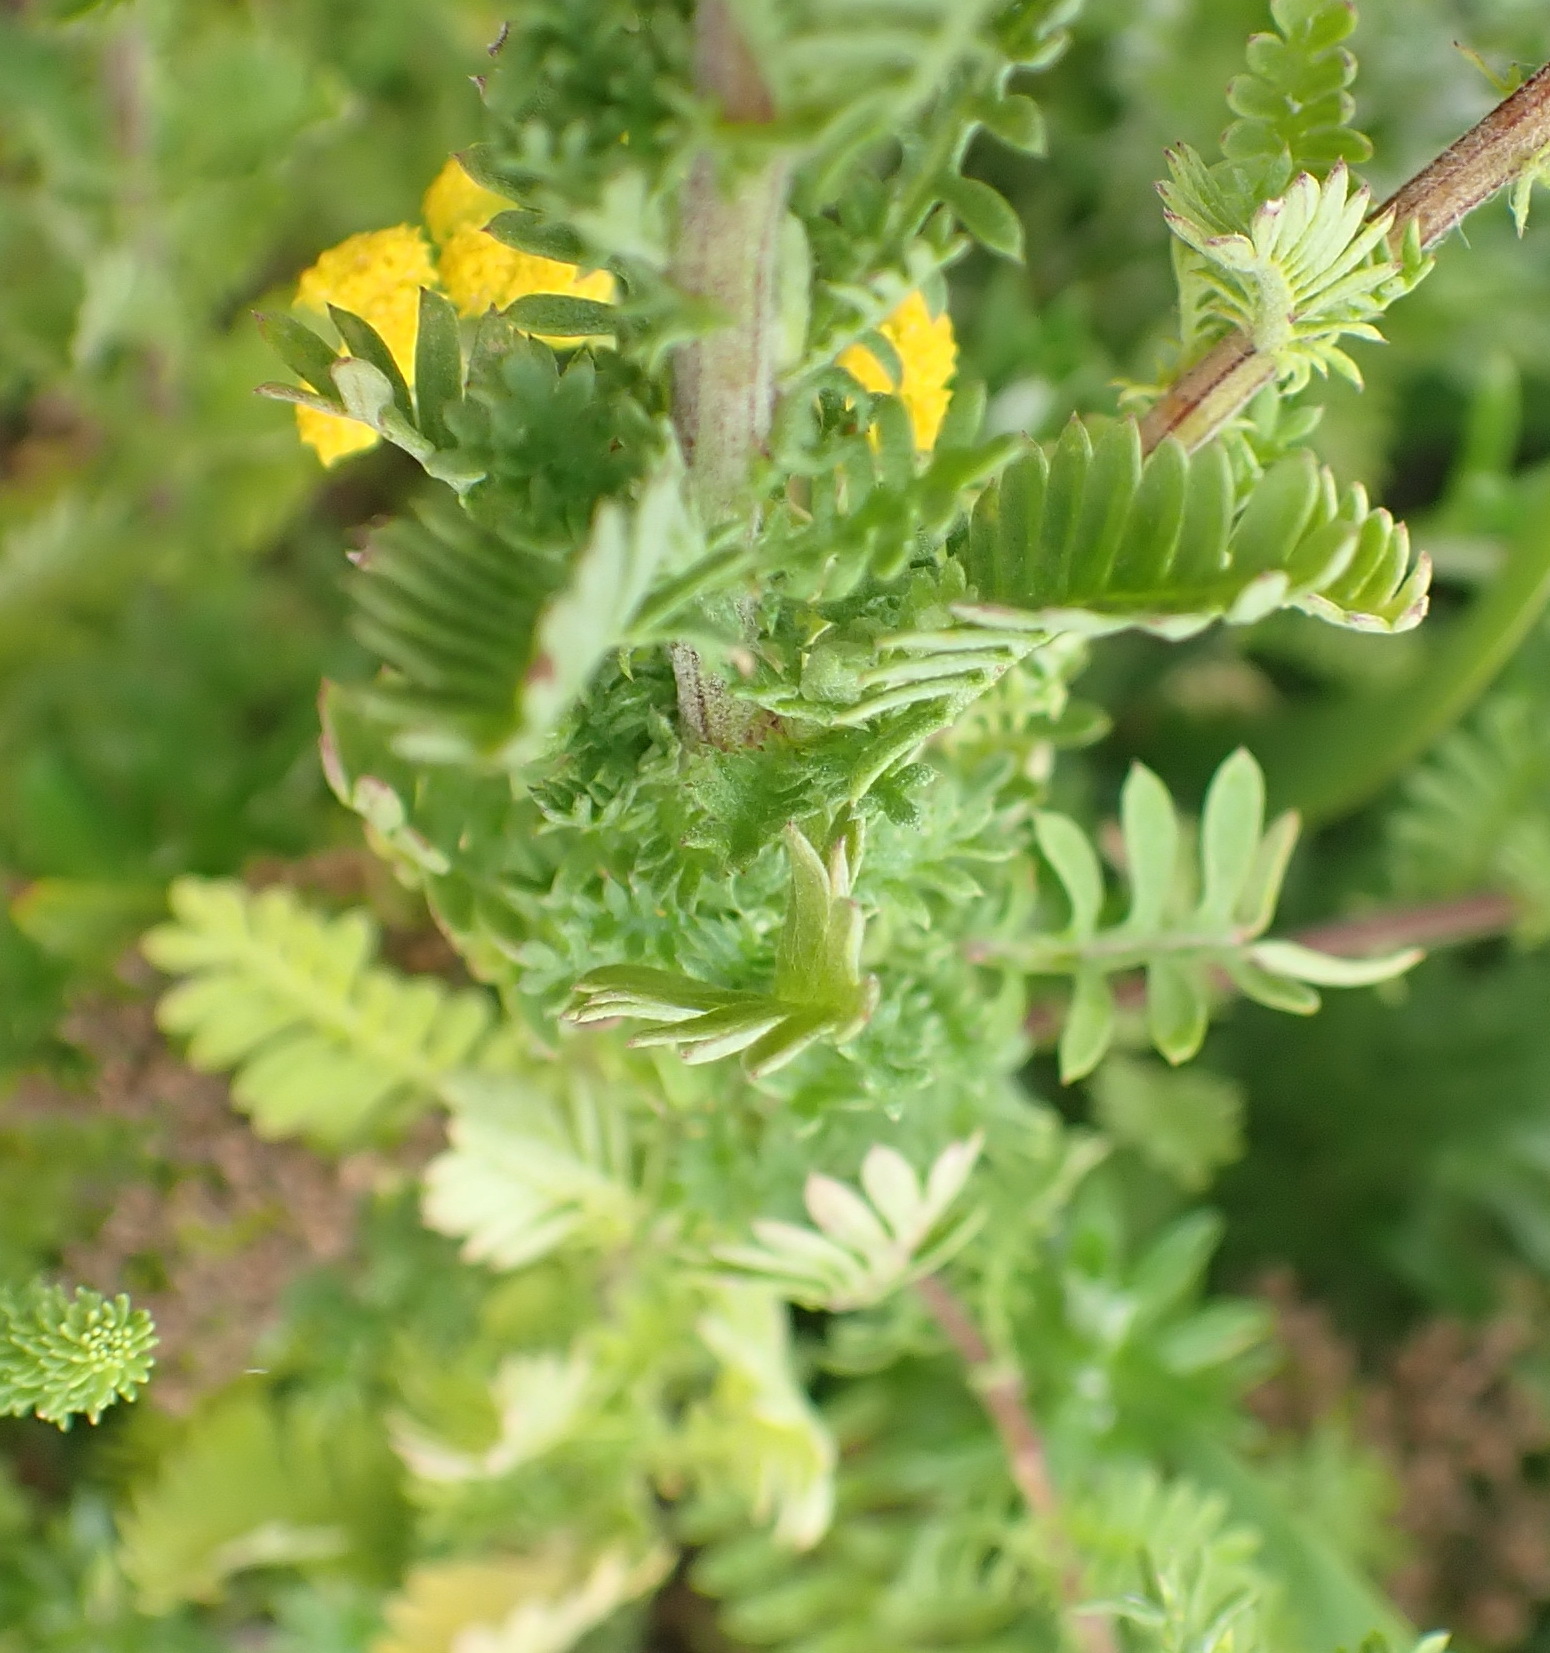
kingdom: Plantae
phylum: Tracheophyta
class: Magnoliopsida
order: Asterales
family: Asteraceae
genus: Hippia
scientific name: Hippia frutescens
